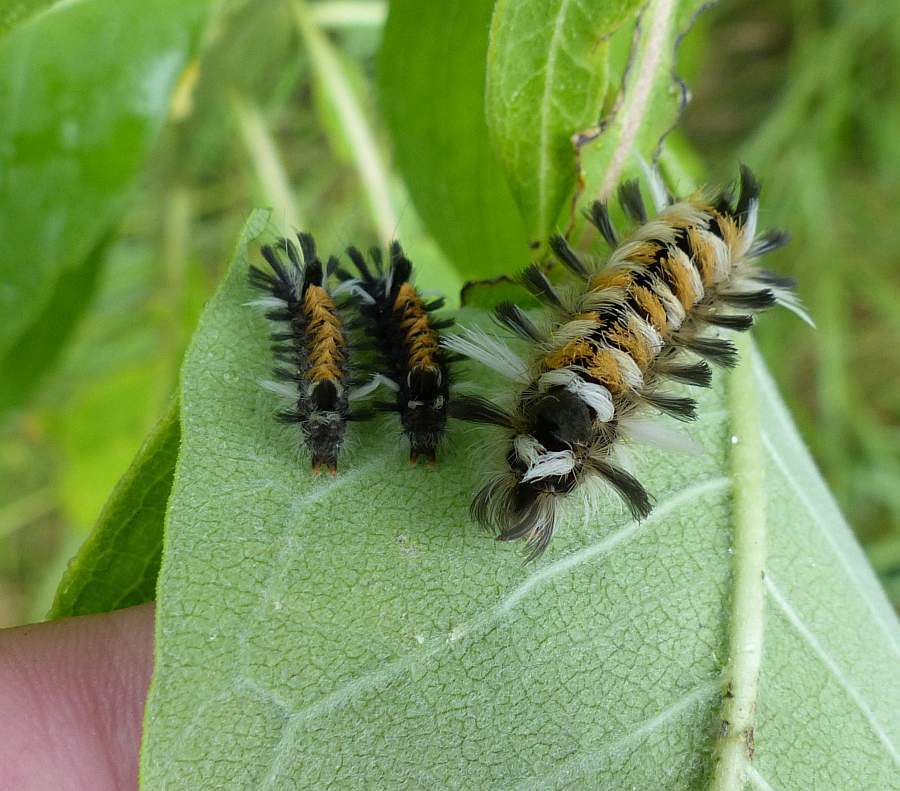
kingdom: Animalia
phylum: Arthropoda
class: Insecta
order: Lepidoptera
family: Erebidae
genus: Euchaetes
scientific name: Euchaetes egle
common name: Milkweed tussock moth
